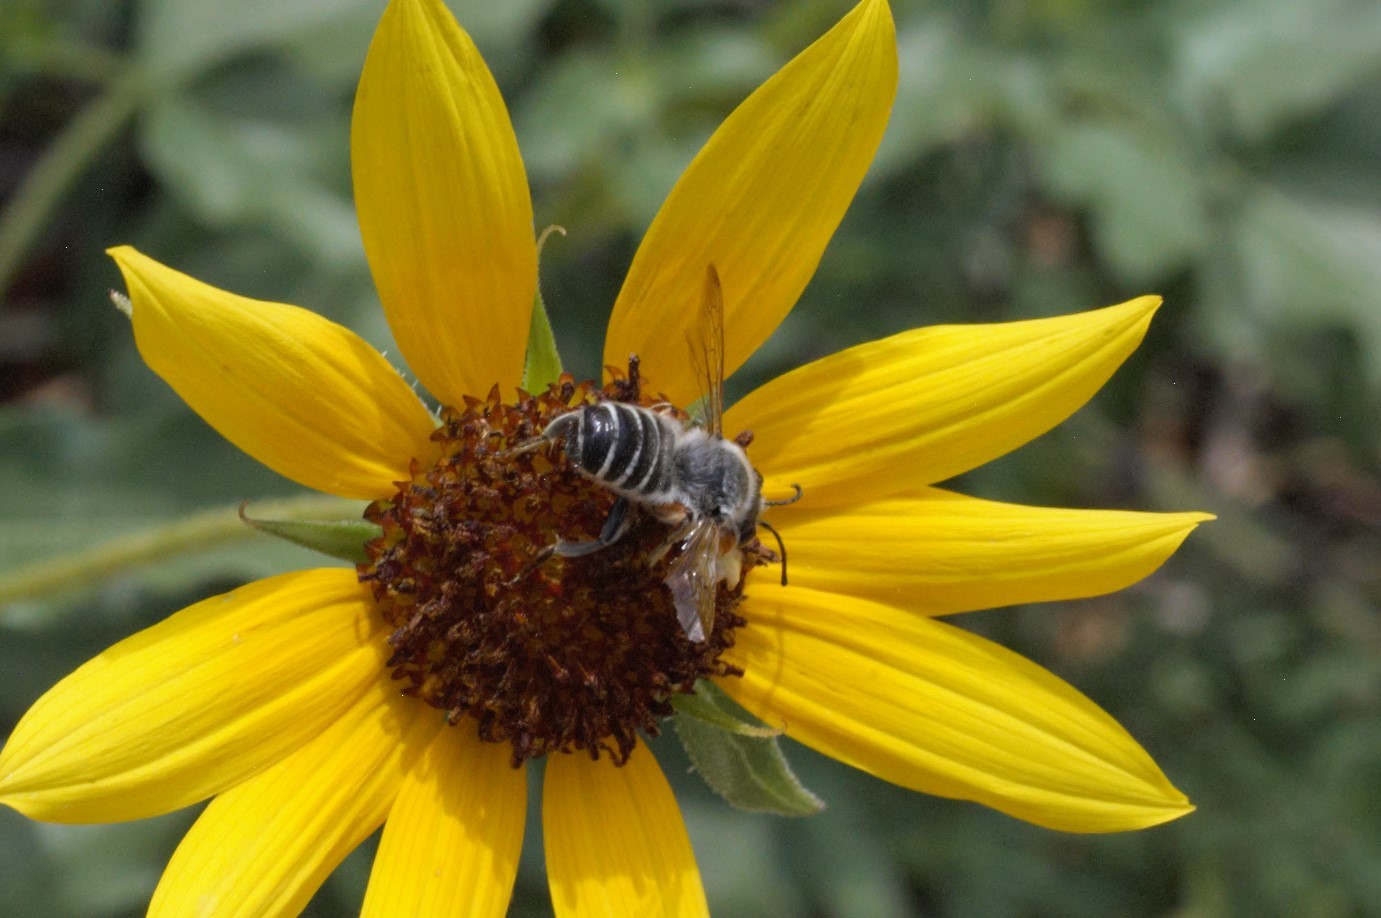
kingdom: Animalia
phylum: Arthropoda
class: Insecta
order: Hymenoptera
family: Megachilidae
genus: Megachile
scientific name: Megachile policaris
